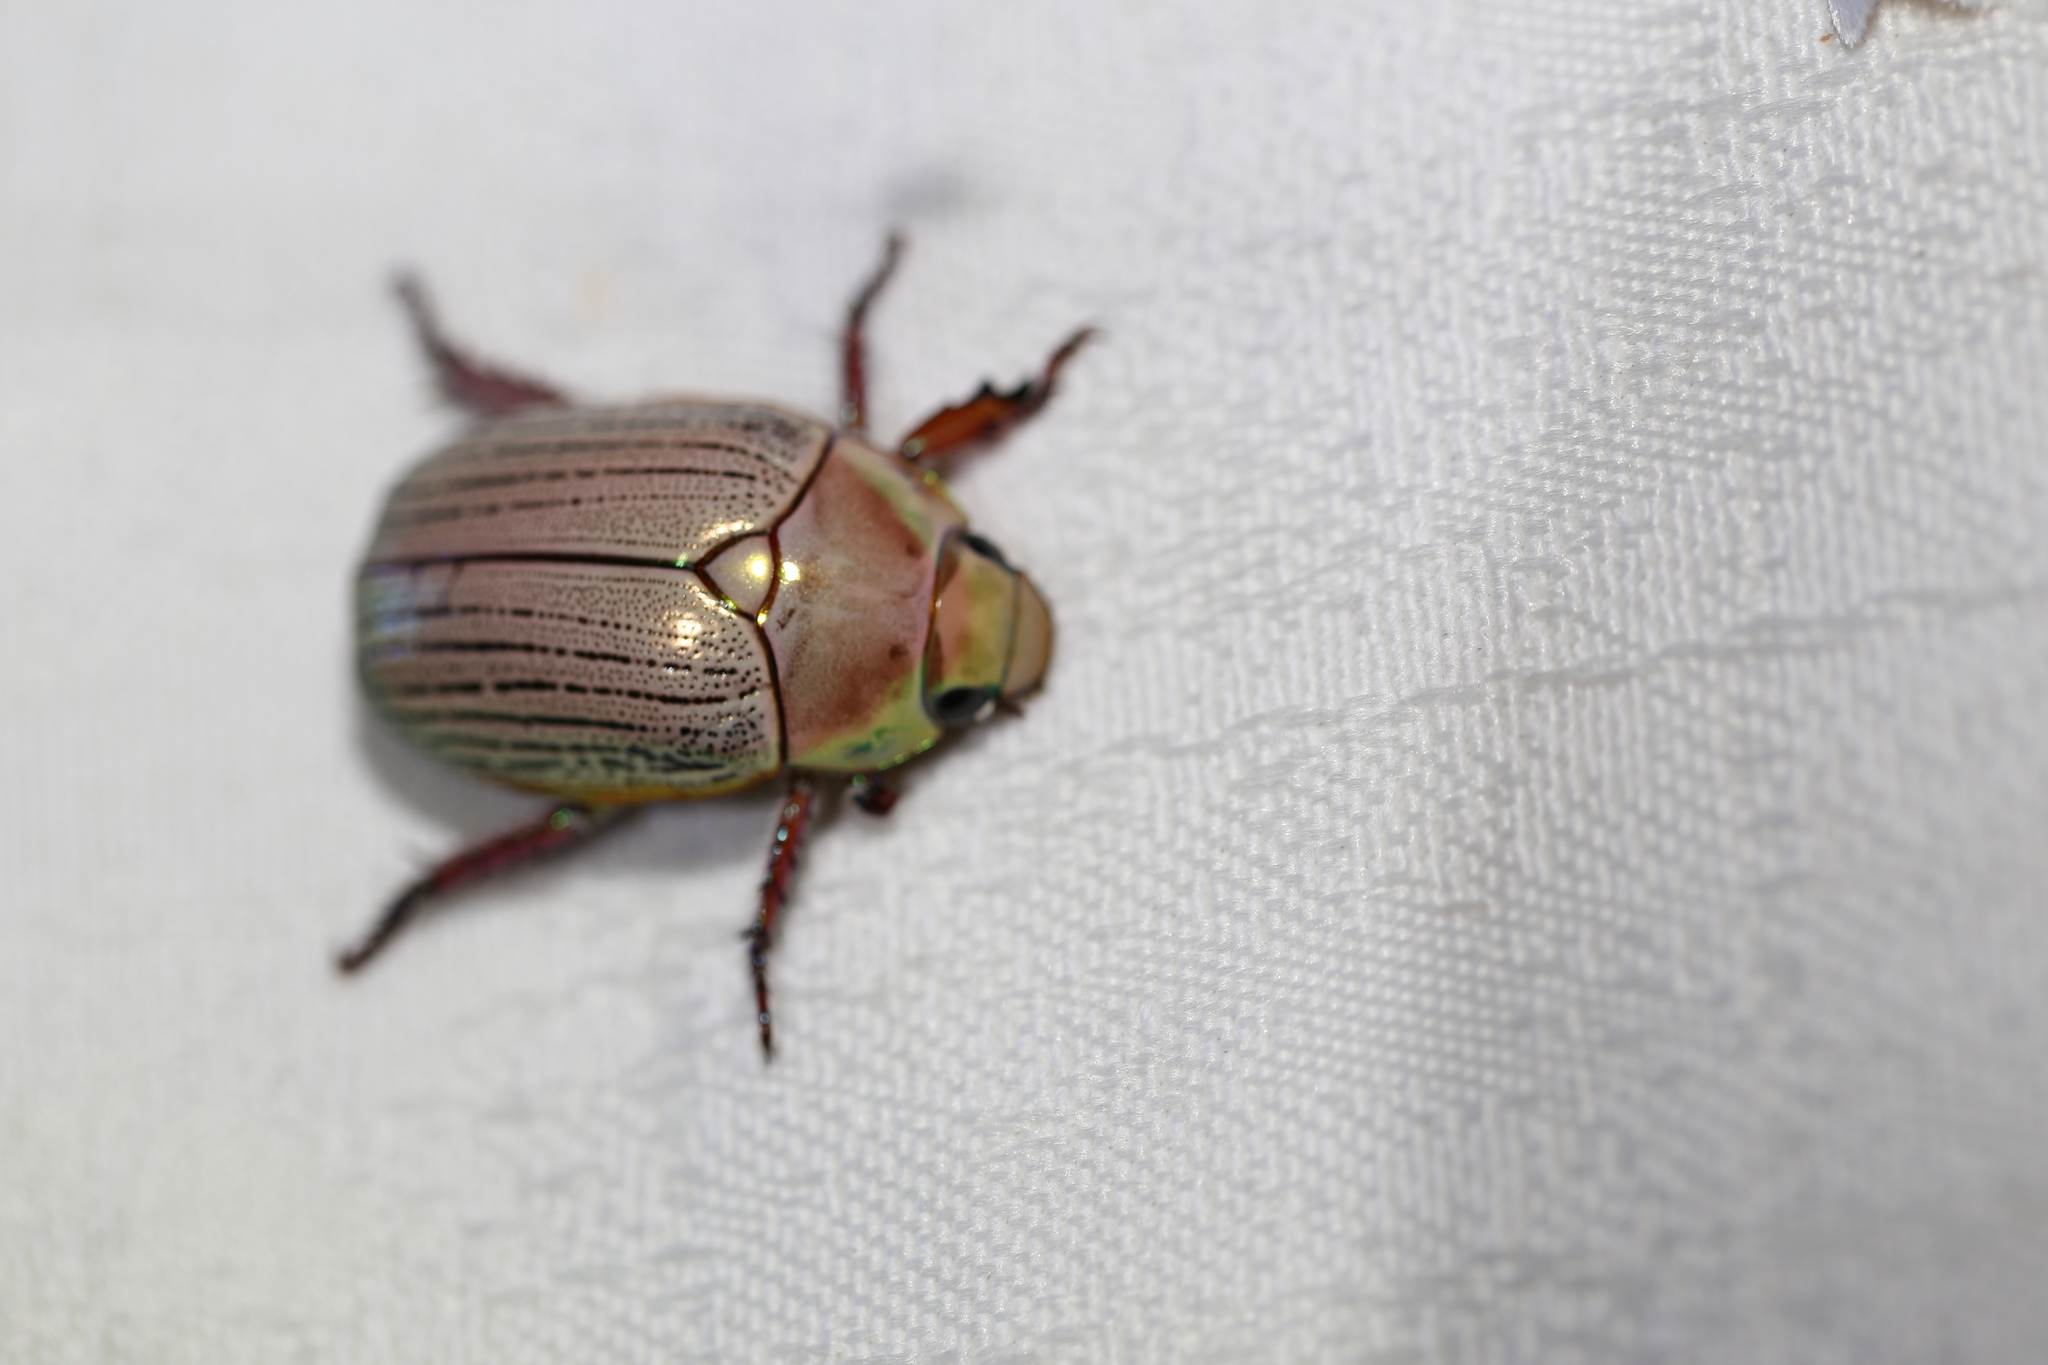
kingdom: Animalia
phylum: Arthropoda
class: Insecta
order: Coleoptera
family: Scarabaeidae
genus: Anoplognathus
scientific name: Anoplognathus boisduvali
